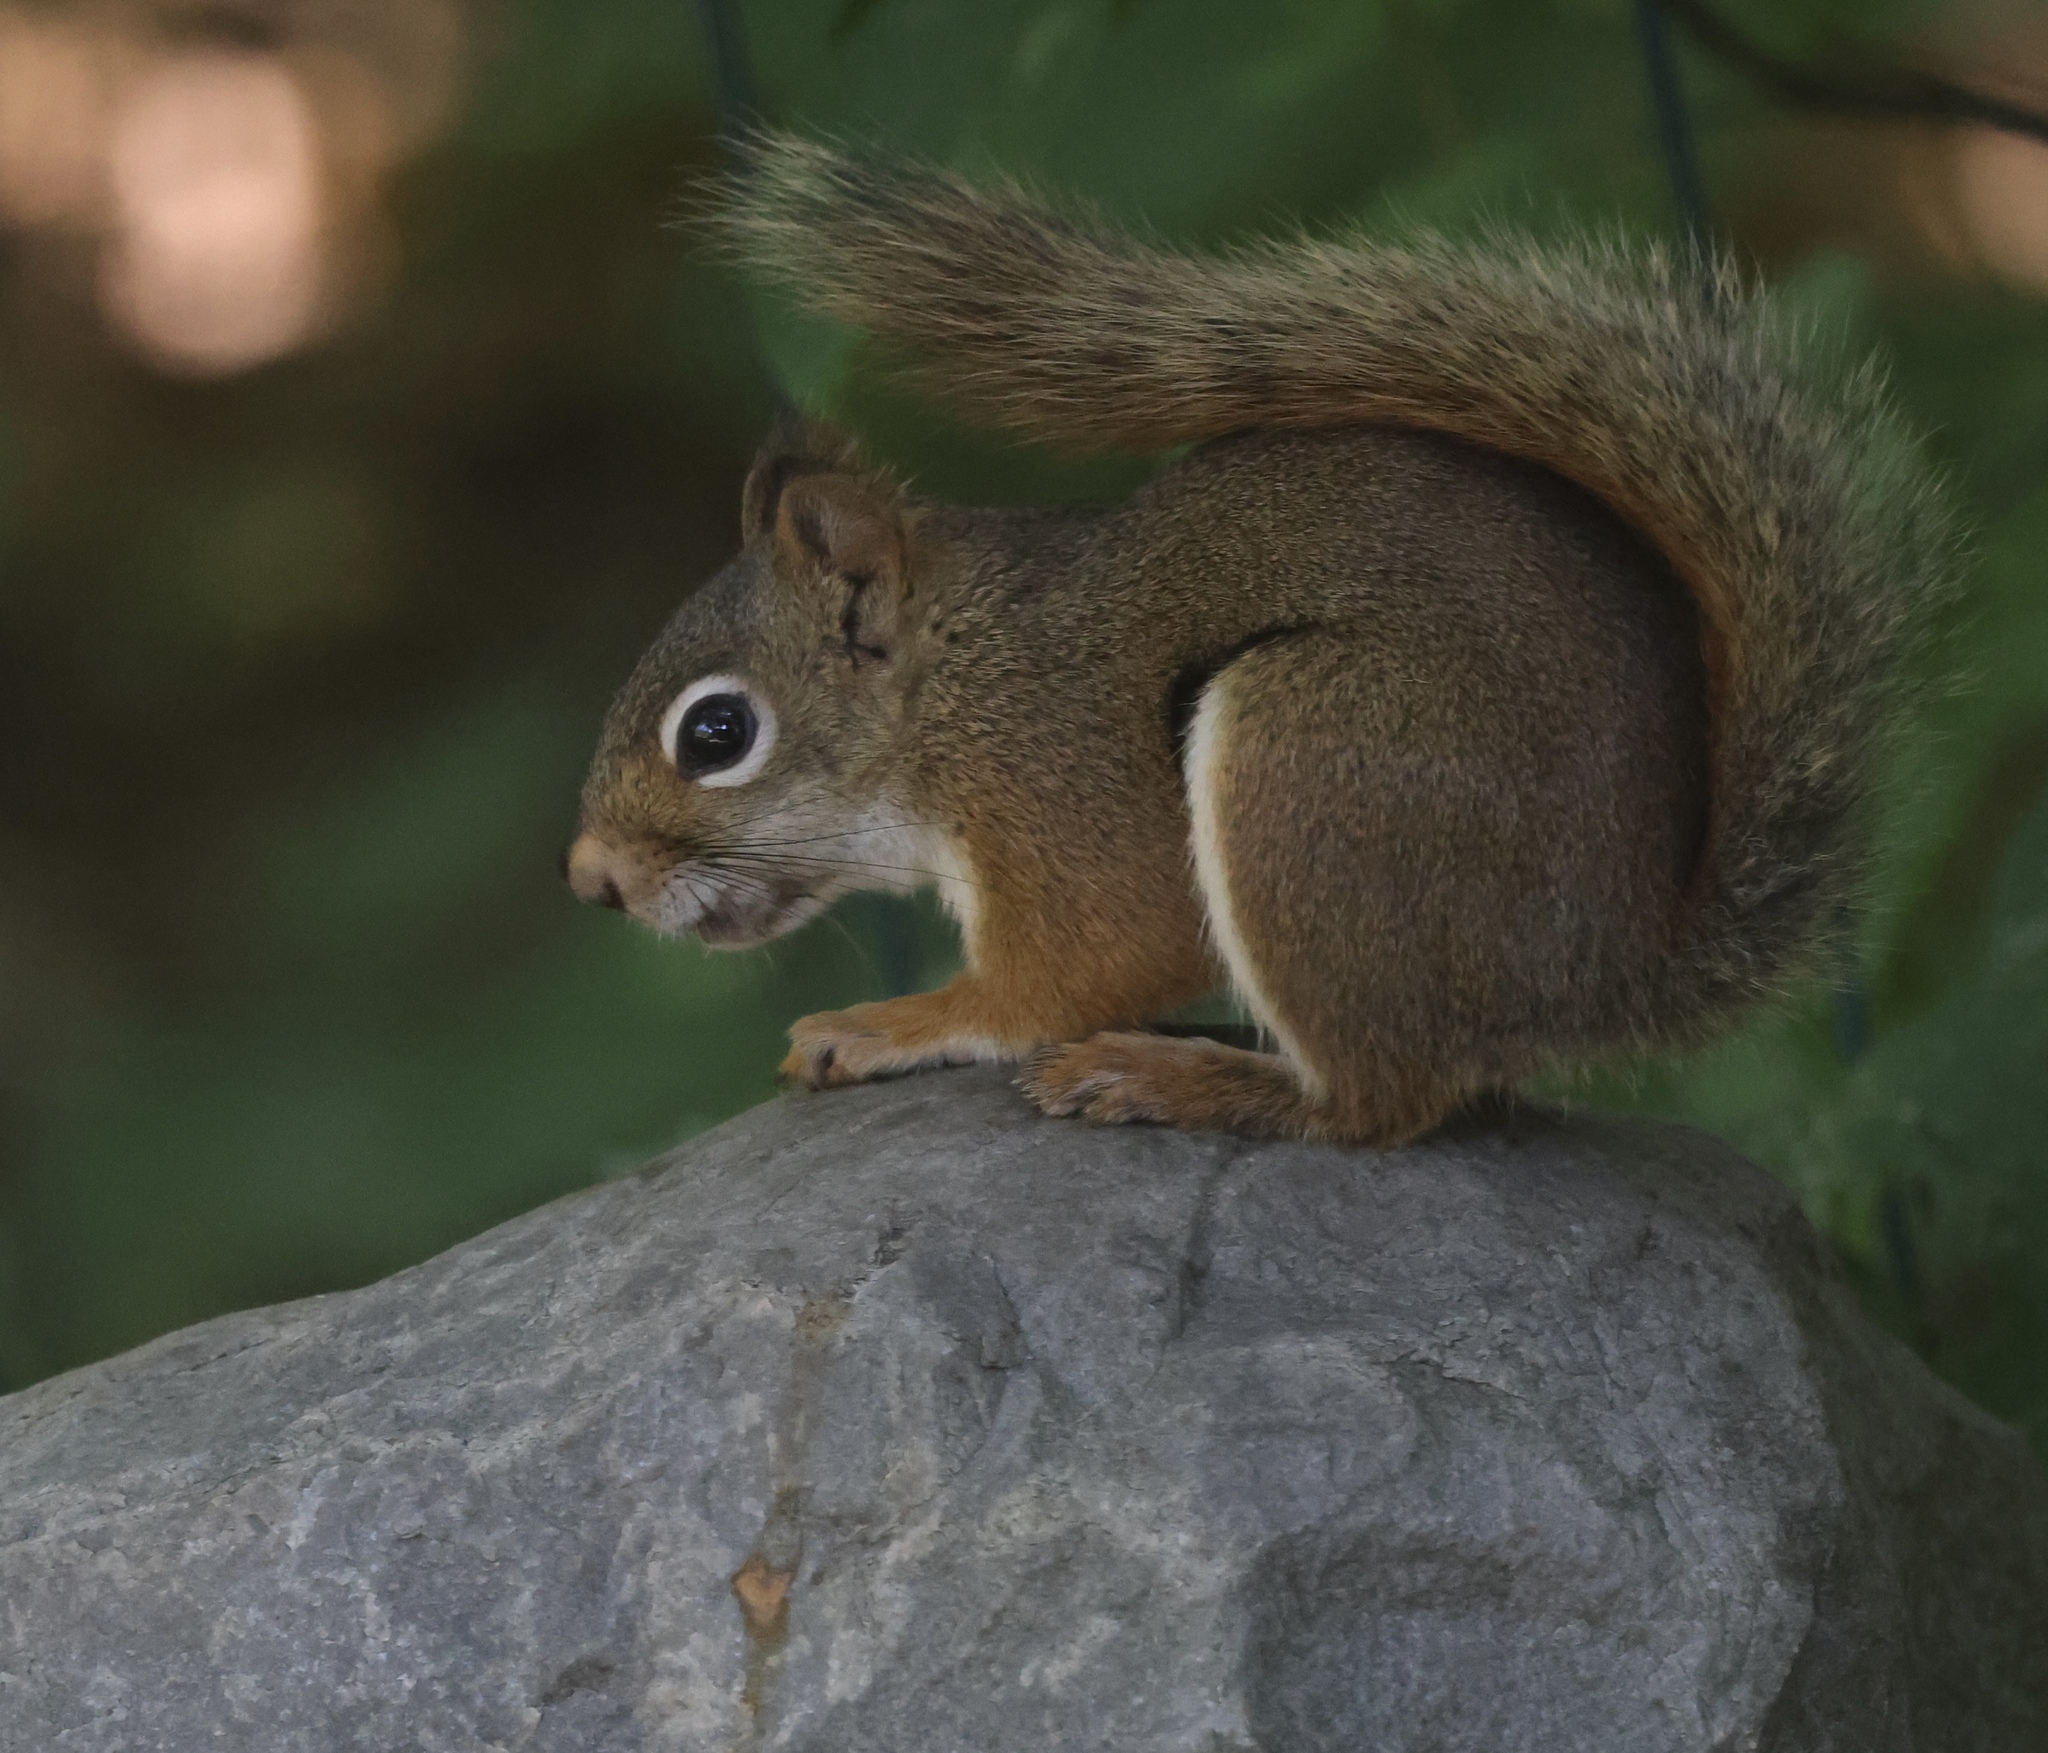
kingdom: Animalia
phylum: Chordata
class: Mammalia
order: Rodentia
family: Sciuridae
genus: Tamiasciurus
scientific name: Tamiasciurus hudsonicus
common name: Red squirrel
